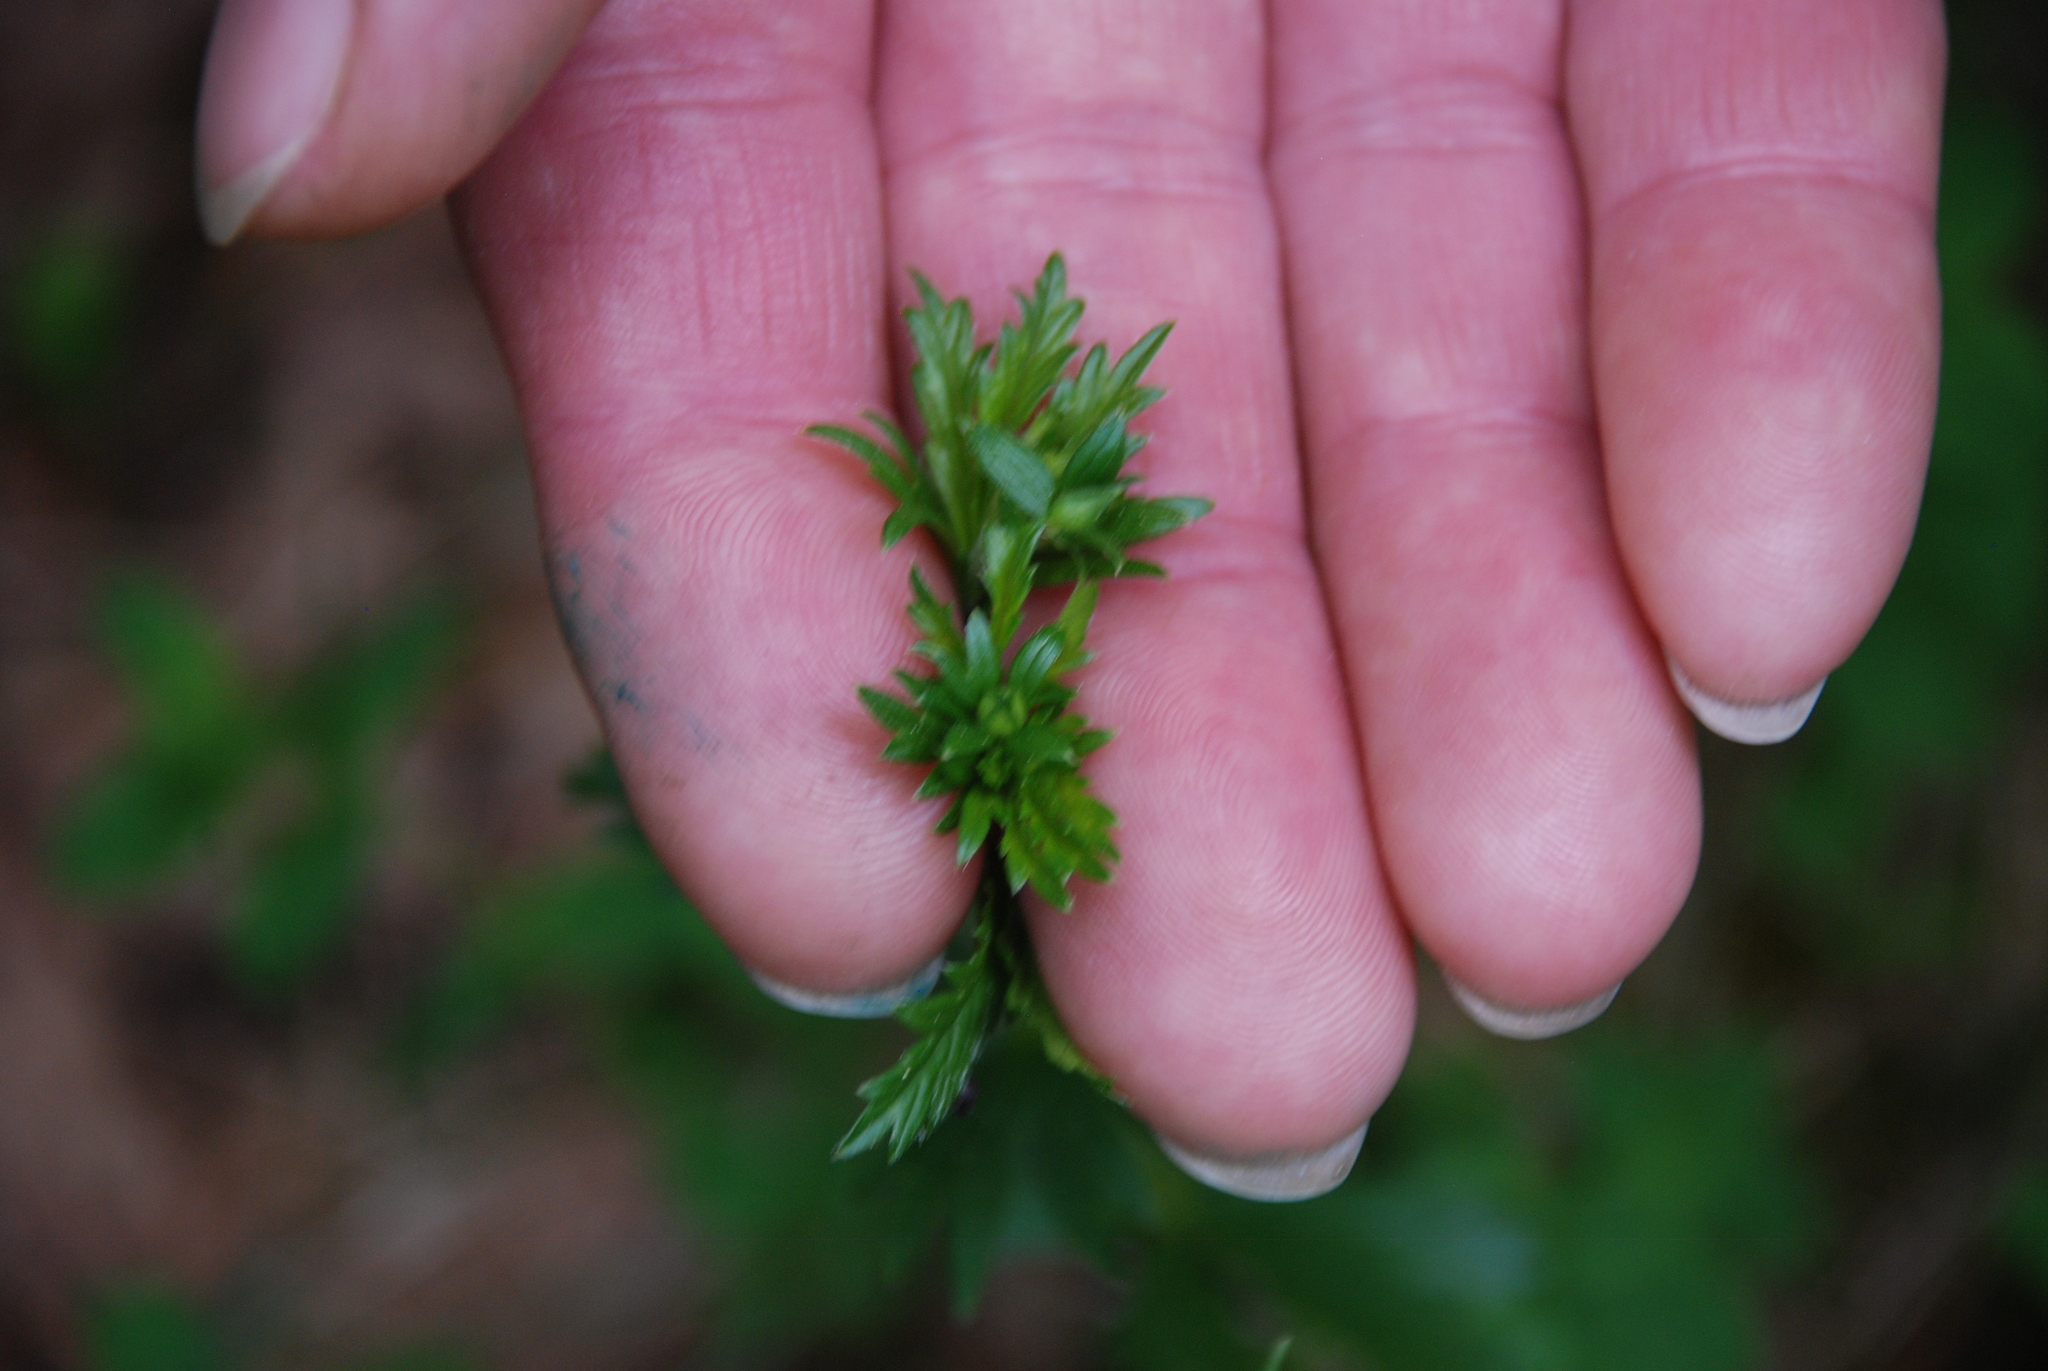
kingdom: Plantae
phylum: Tracheophyta
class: Magnoliopsida
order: Rosales
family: Rosaceae
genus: Potentilla
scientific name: Potentilla erecta
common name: Tormentil
